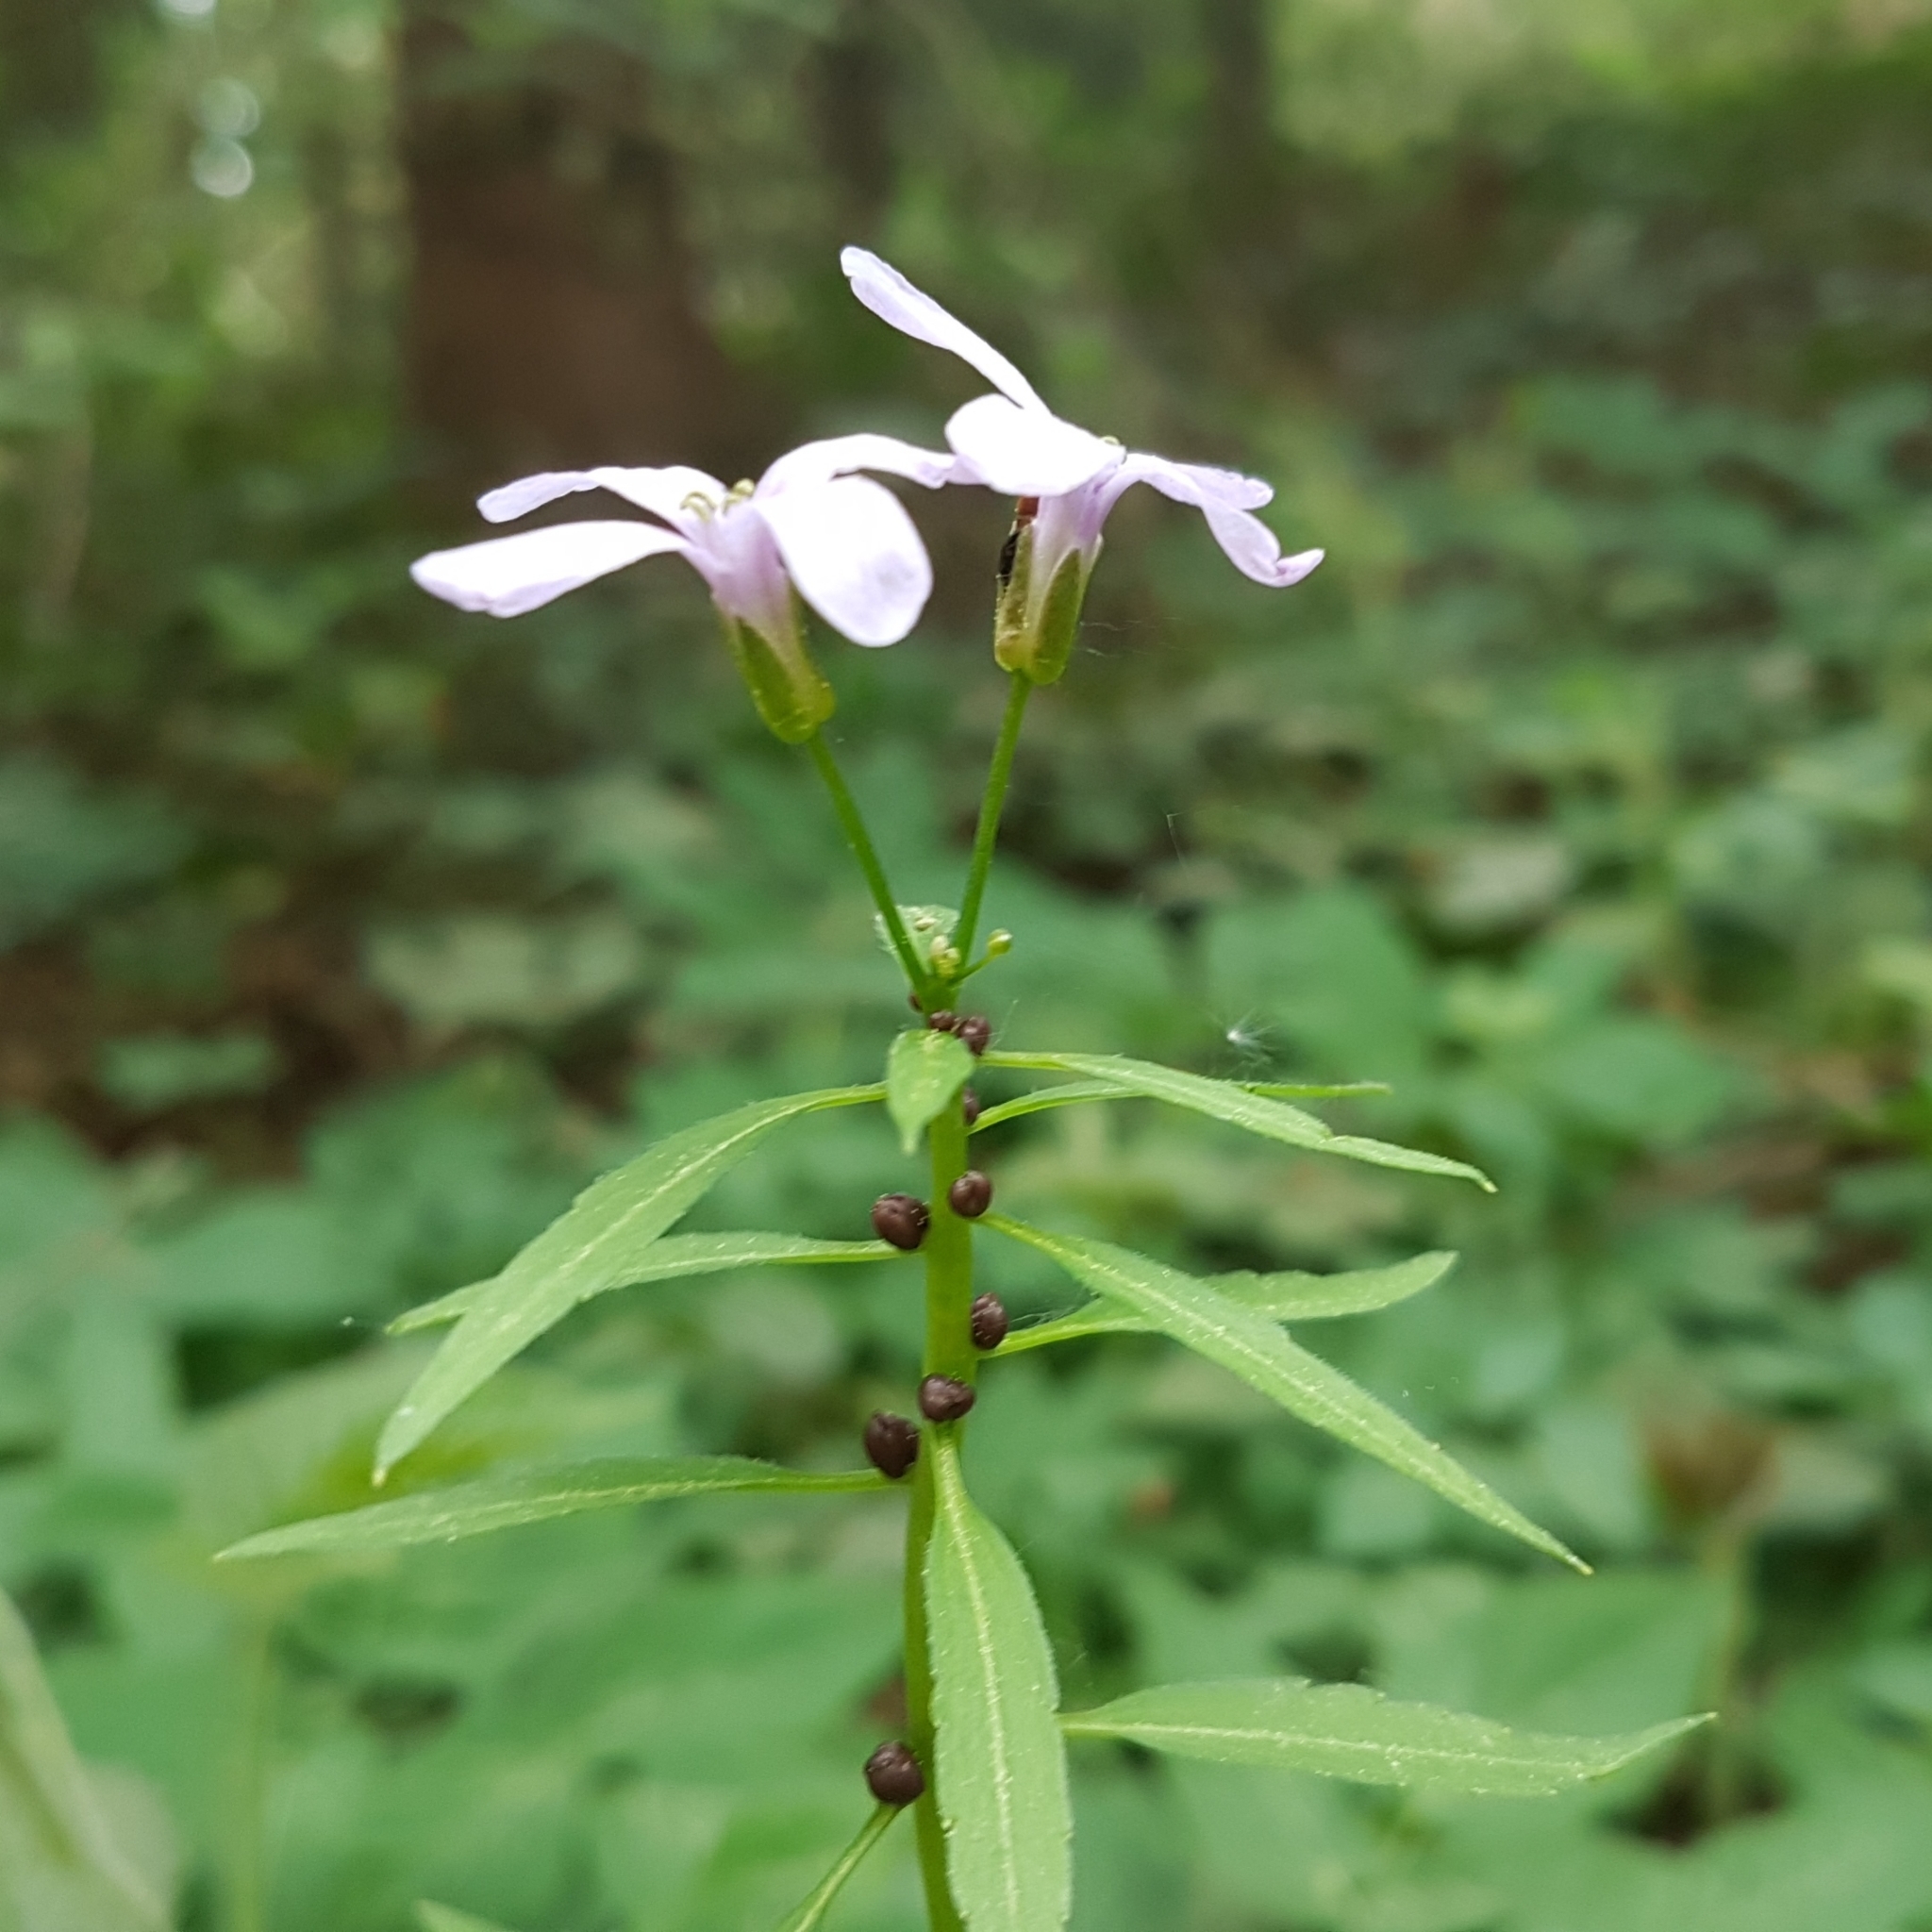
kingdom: Plantae
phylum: Tracheophyta
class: Magnoliopsida
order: Brassicales
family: Brassicaceae
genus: Cardamine
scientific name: Cardamine bulbifera
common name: Coralroot bittercress
